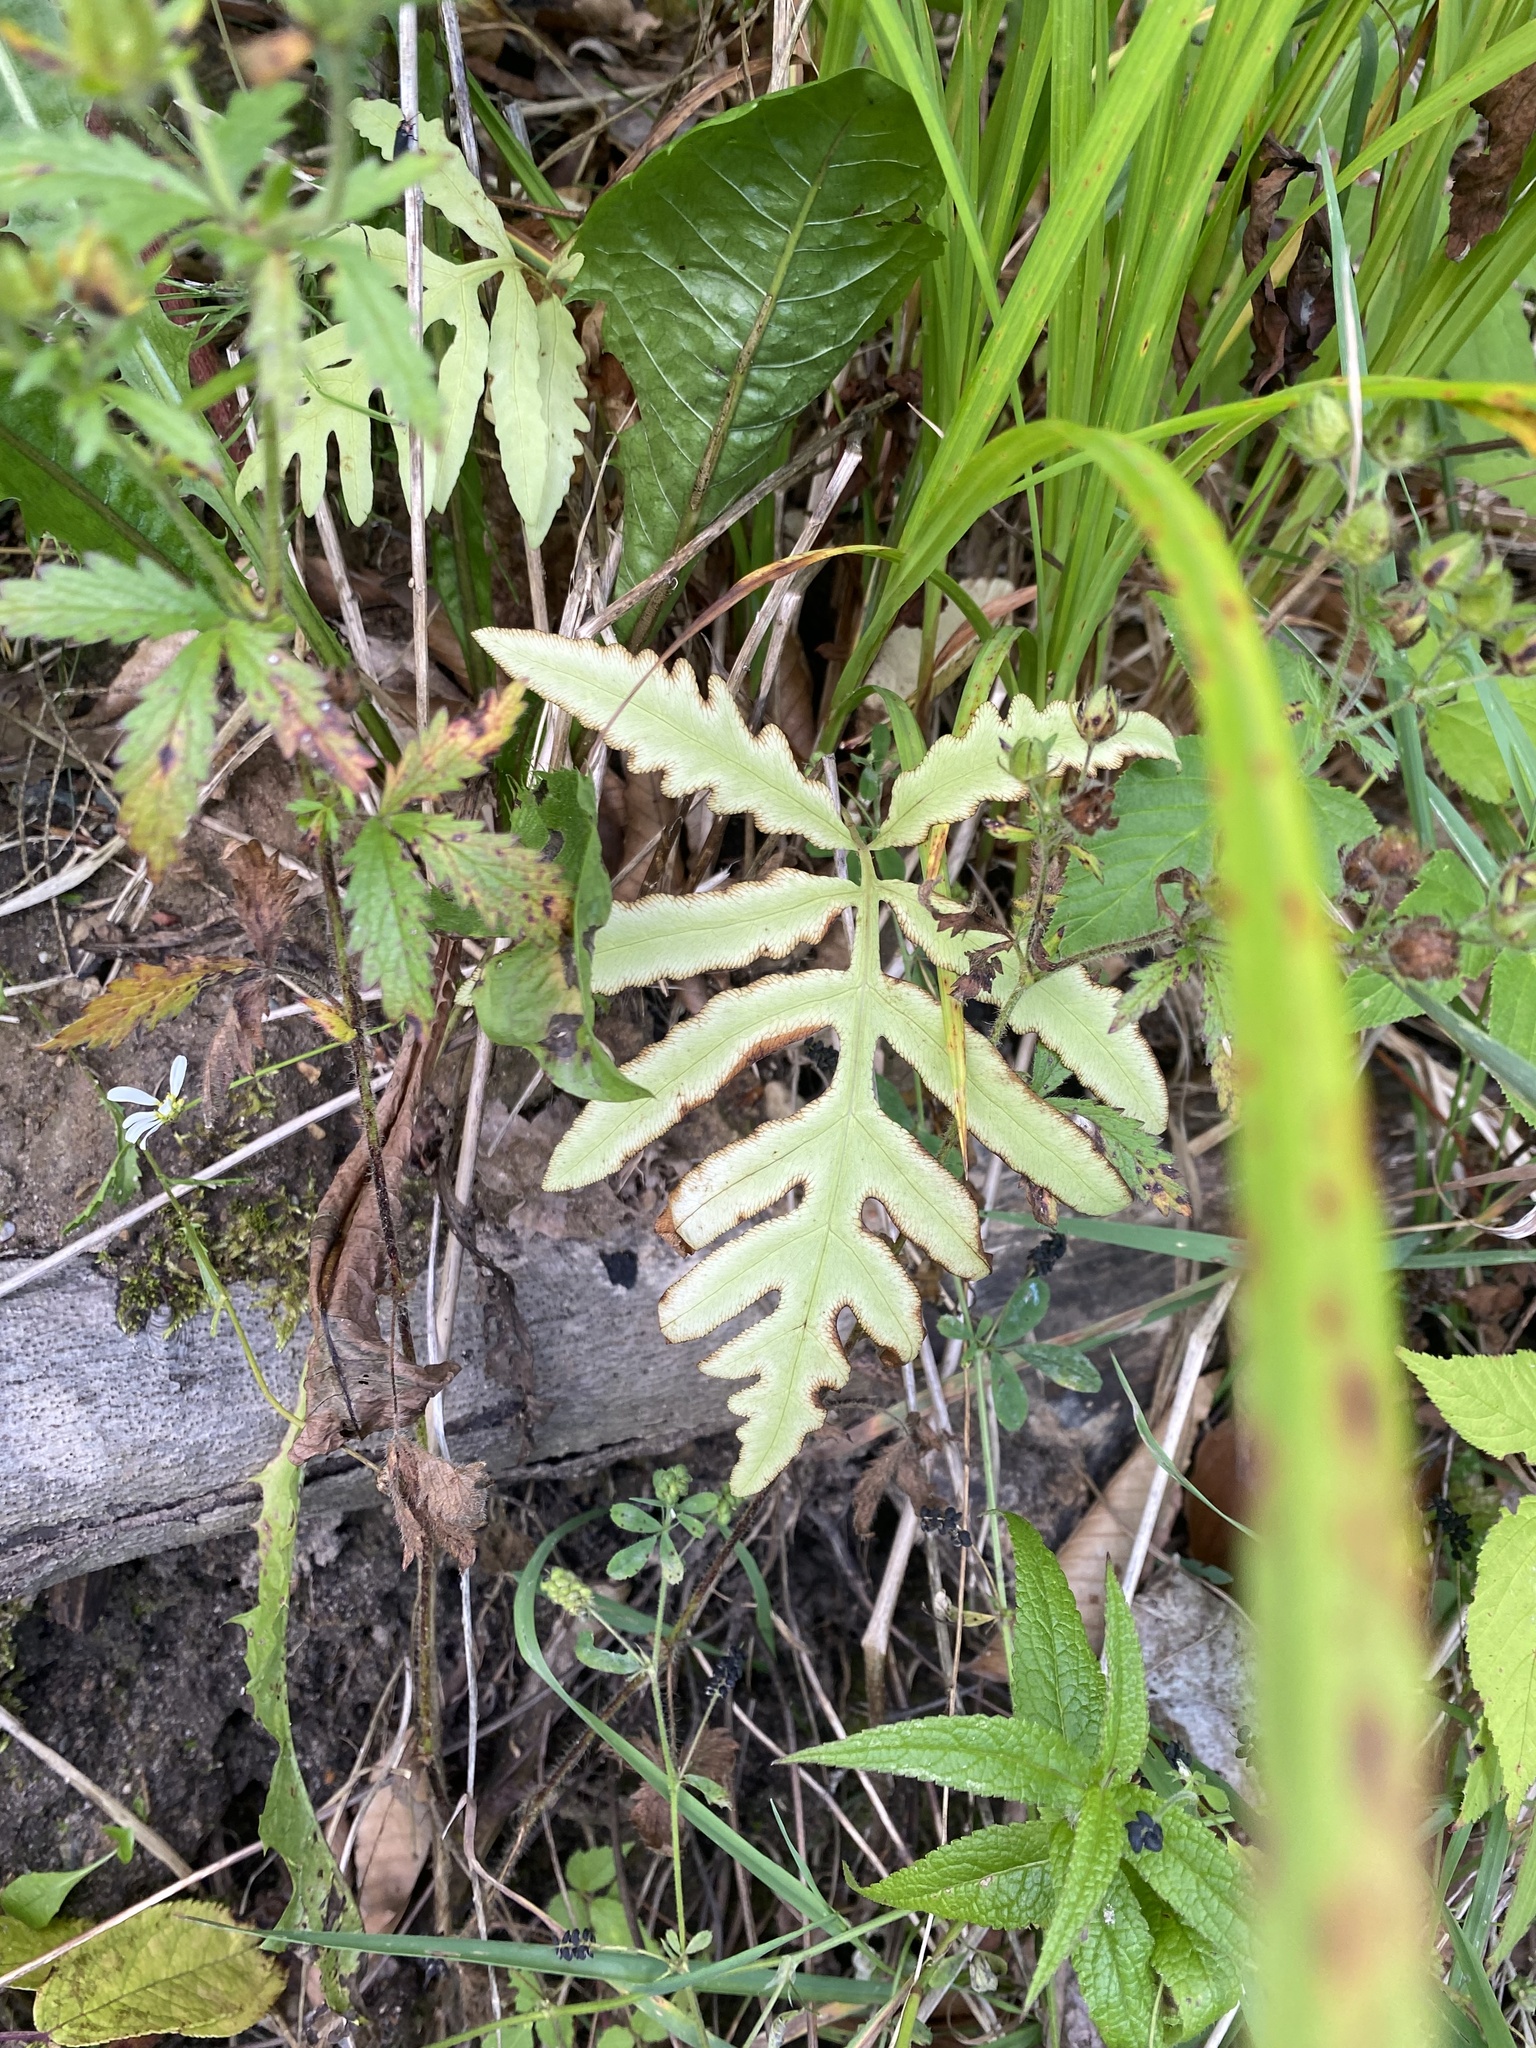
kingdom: Plantae
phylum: Tracheophyta
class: Polypodiopsida
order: Polypodiales
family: Onocleaceae
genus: Onoclea
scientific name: Onoclea sensibilis
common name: Sensitive fern
